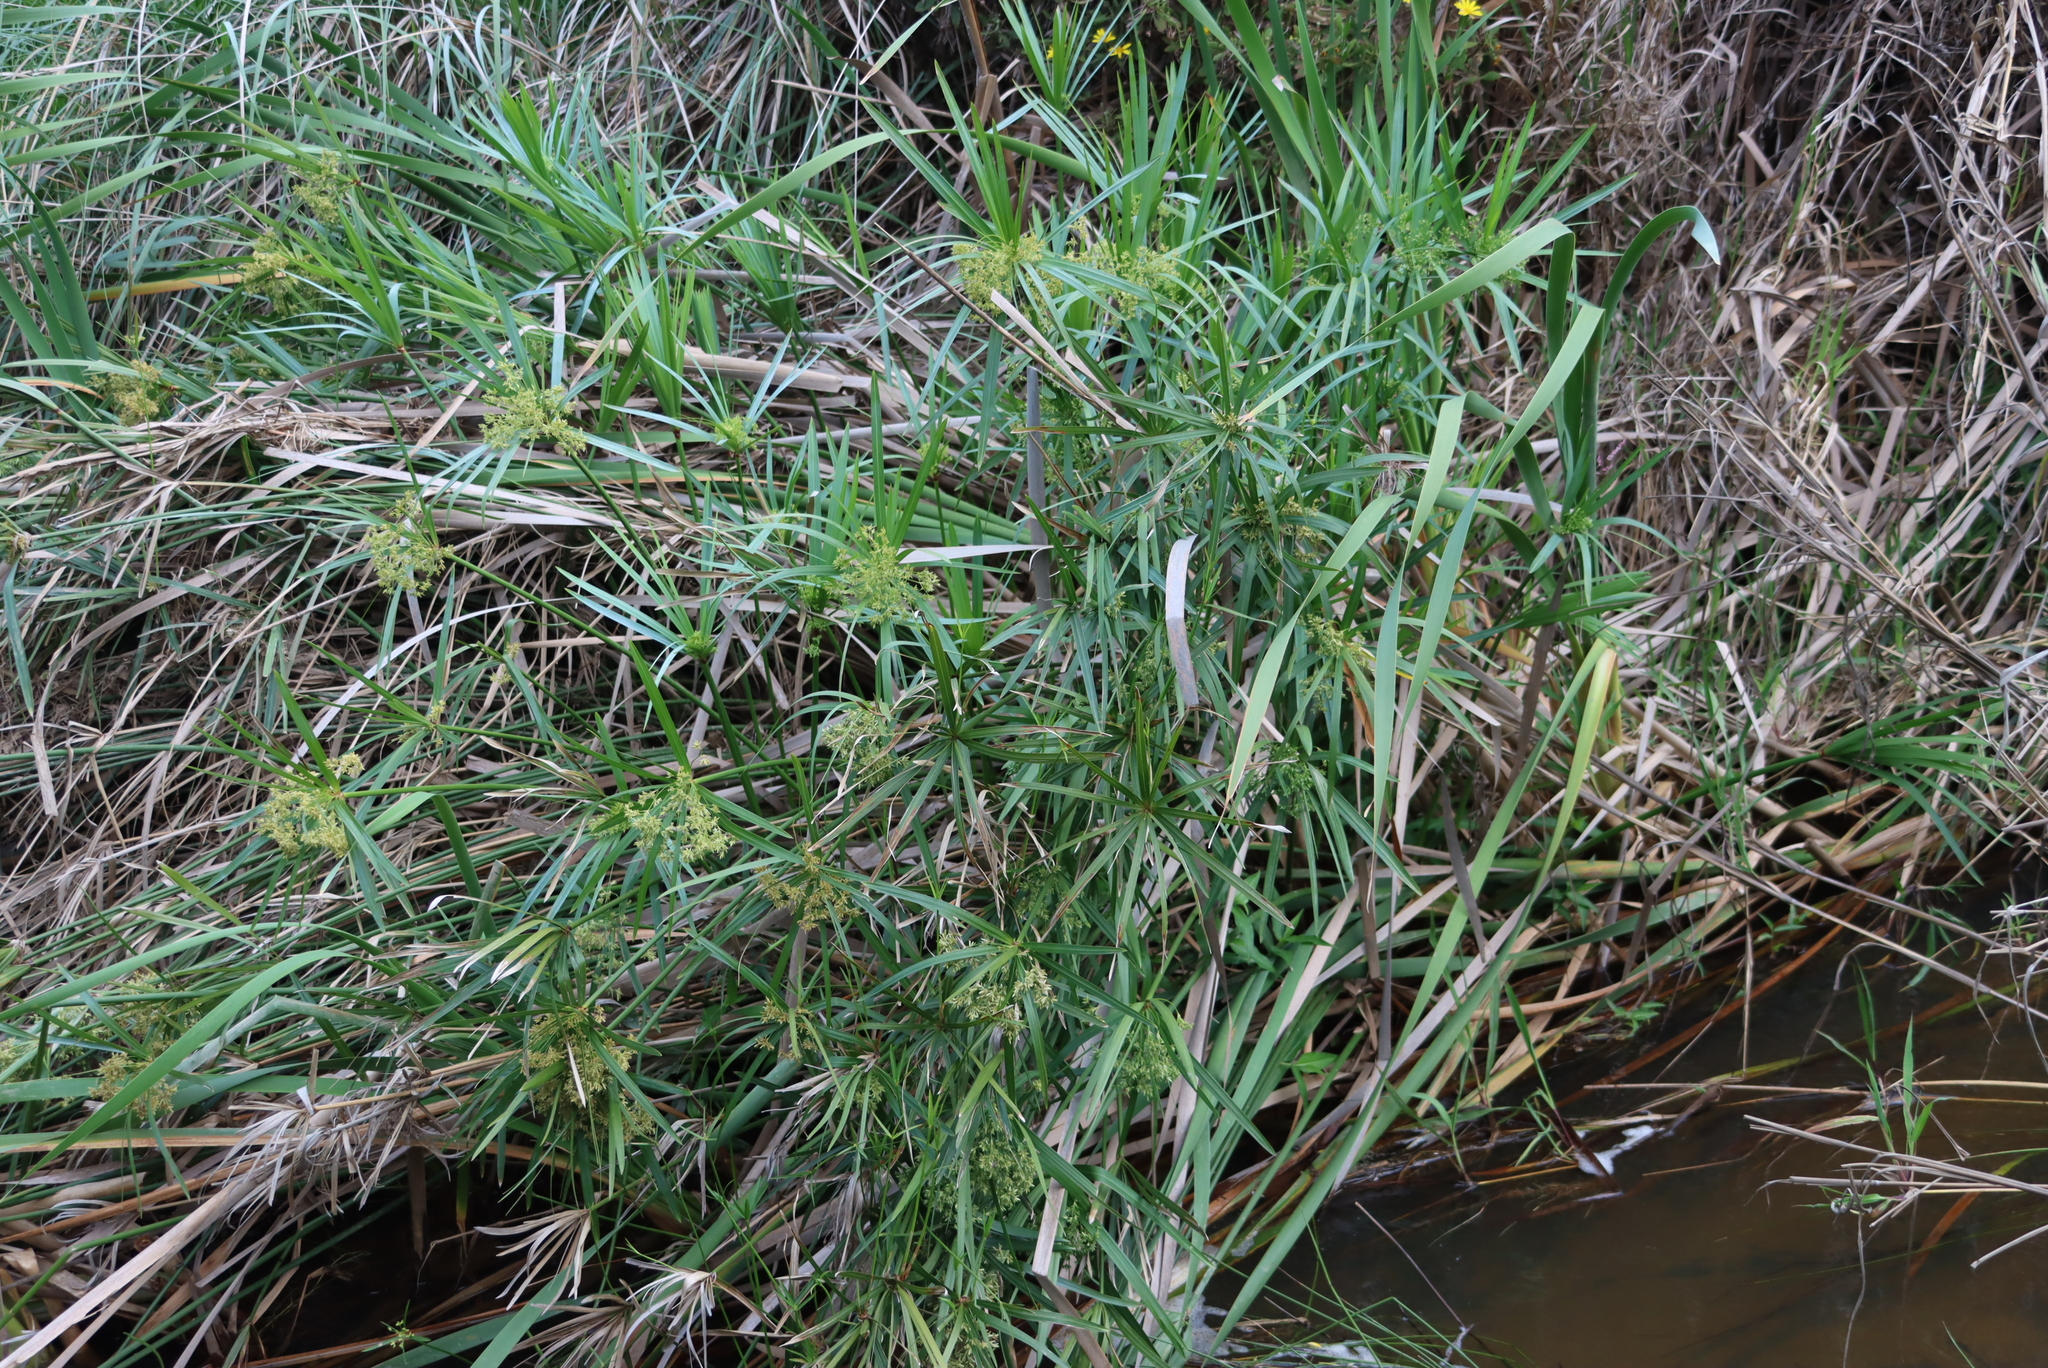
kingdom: Plantae
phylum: Tracheophyta
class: Liliopsida
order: Poales
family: Cyperaceae
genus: Cyperus
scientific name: Cyperus textilis
